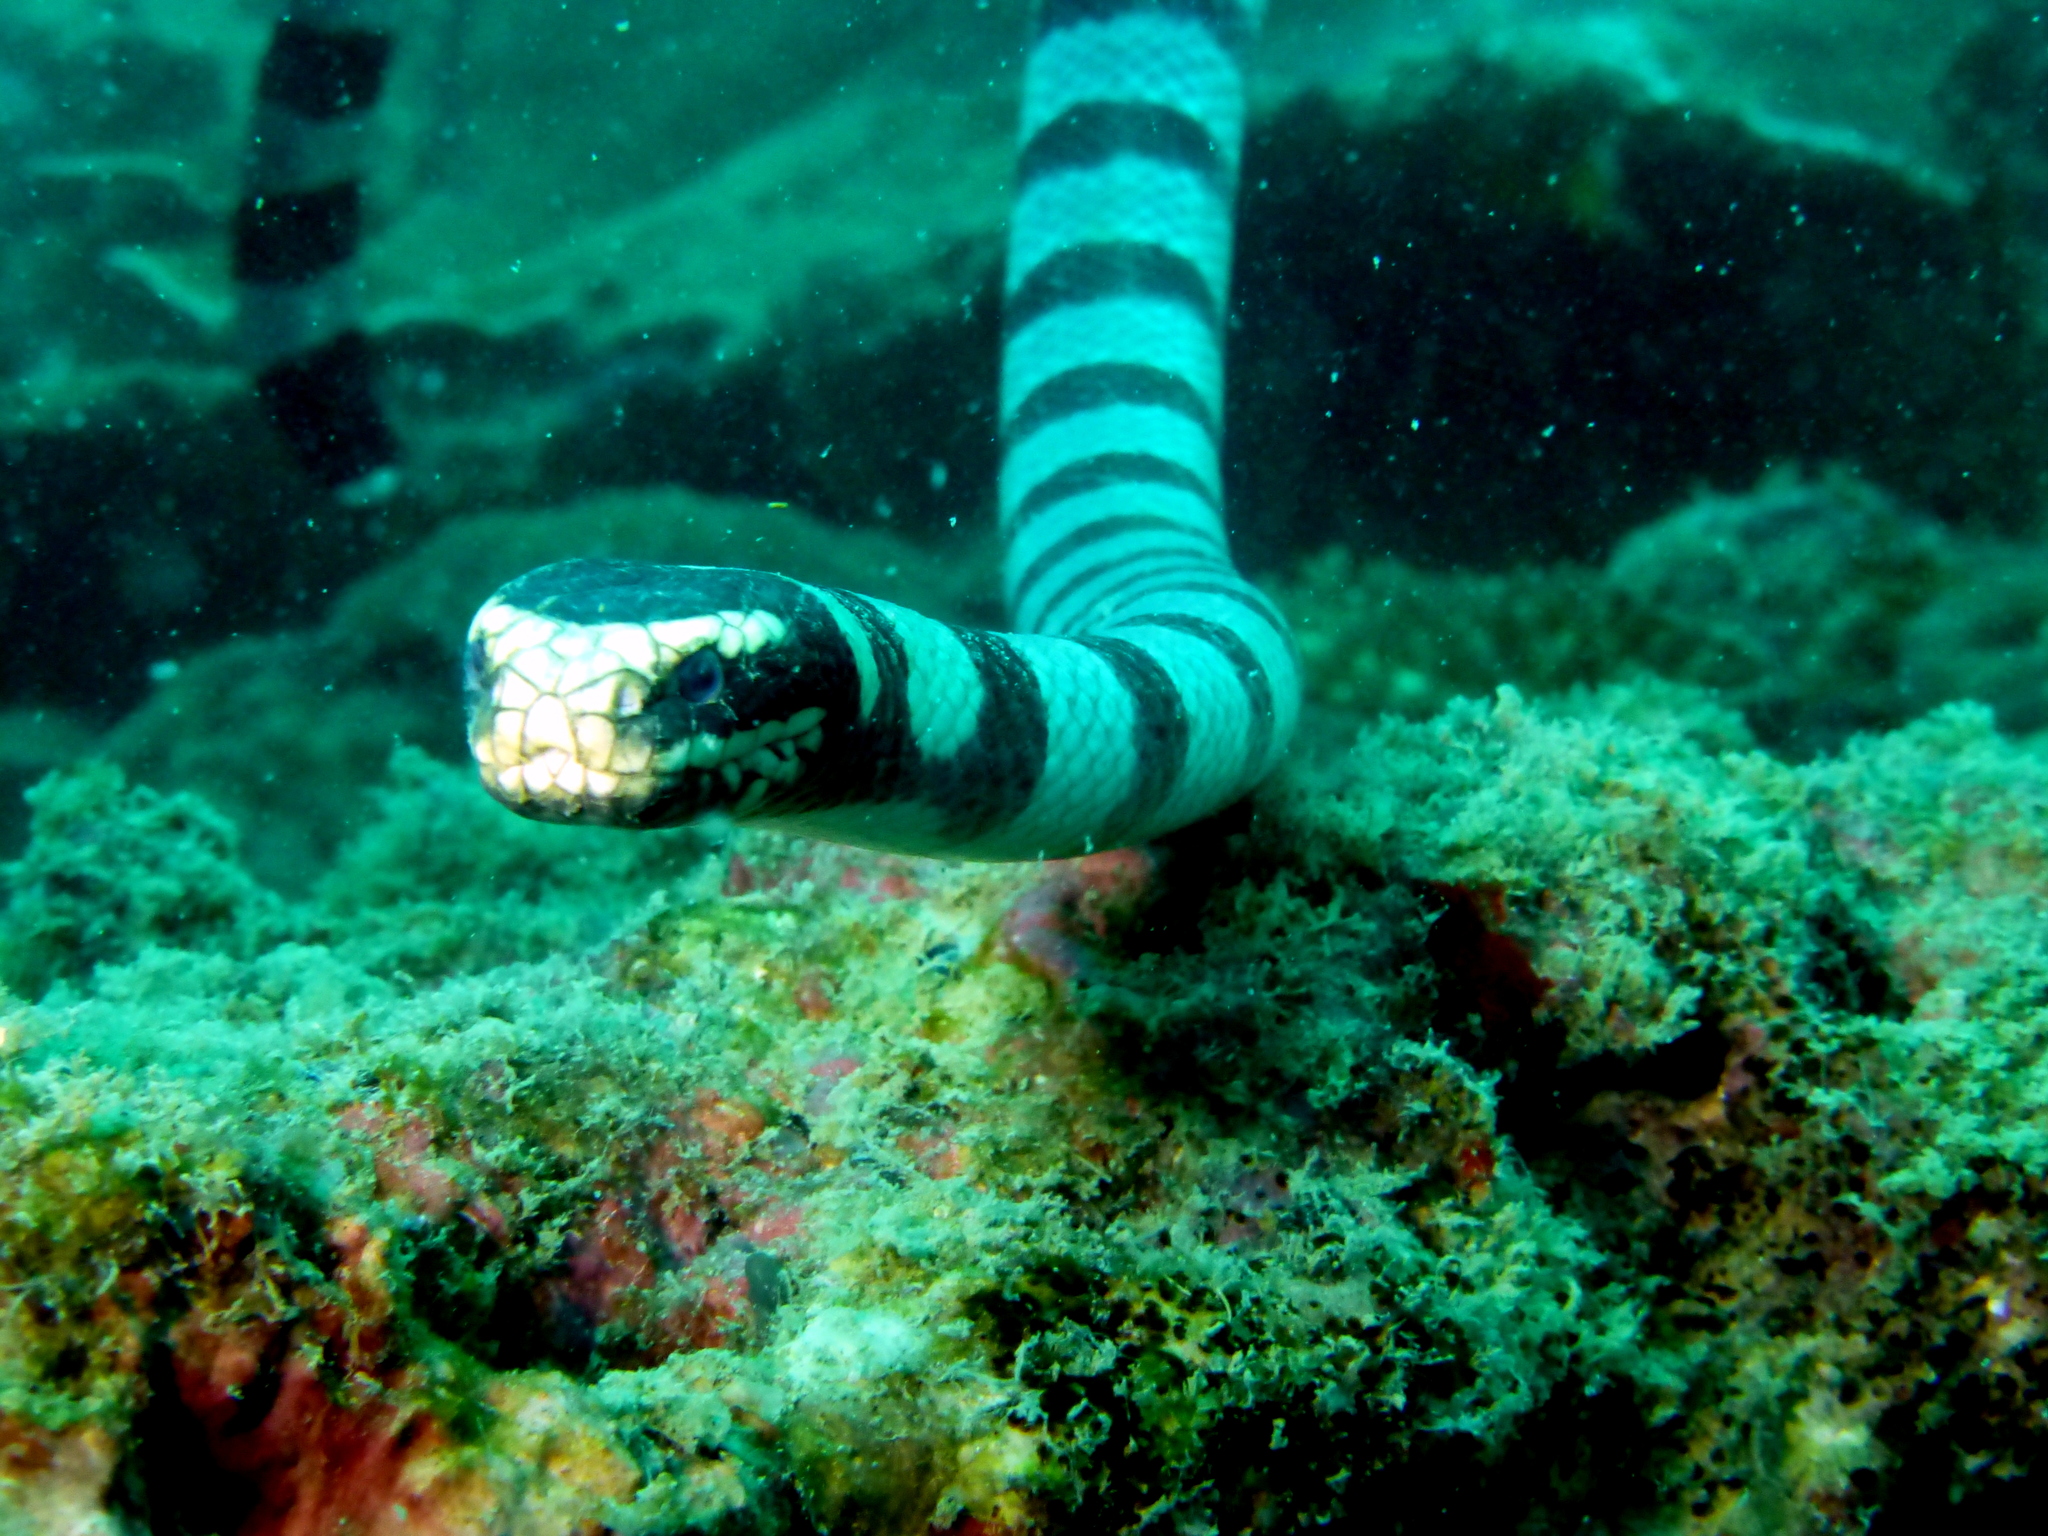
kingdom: Animalia
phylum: Chordata
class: Squamata
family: Elapidae
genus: Laticauda
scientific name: Laticauda colubrina
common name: Yellow-lipped sea krait
